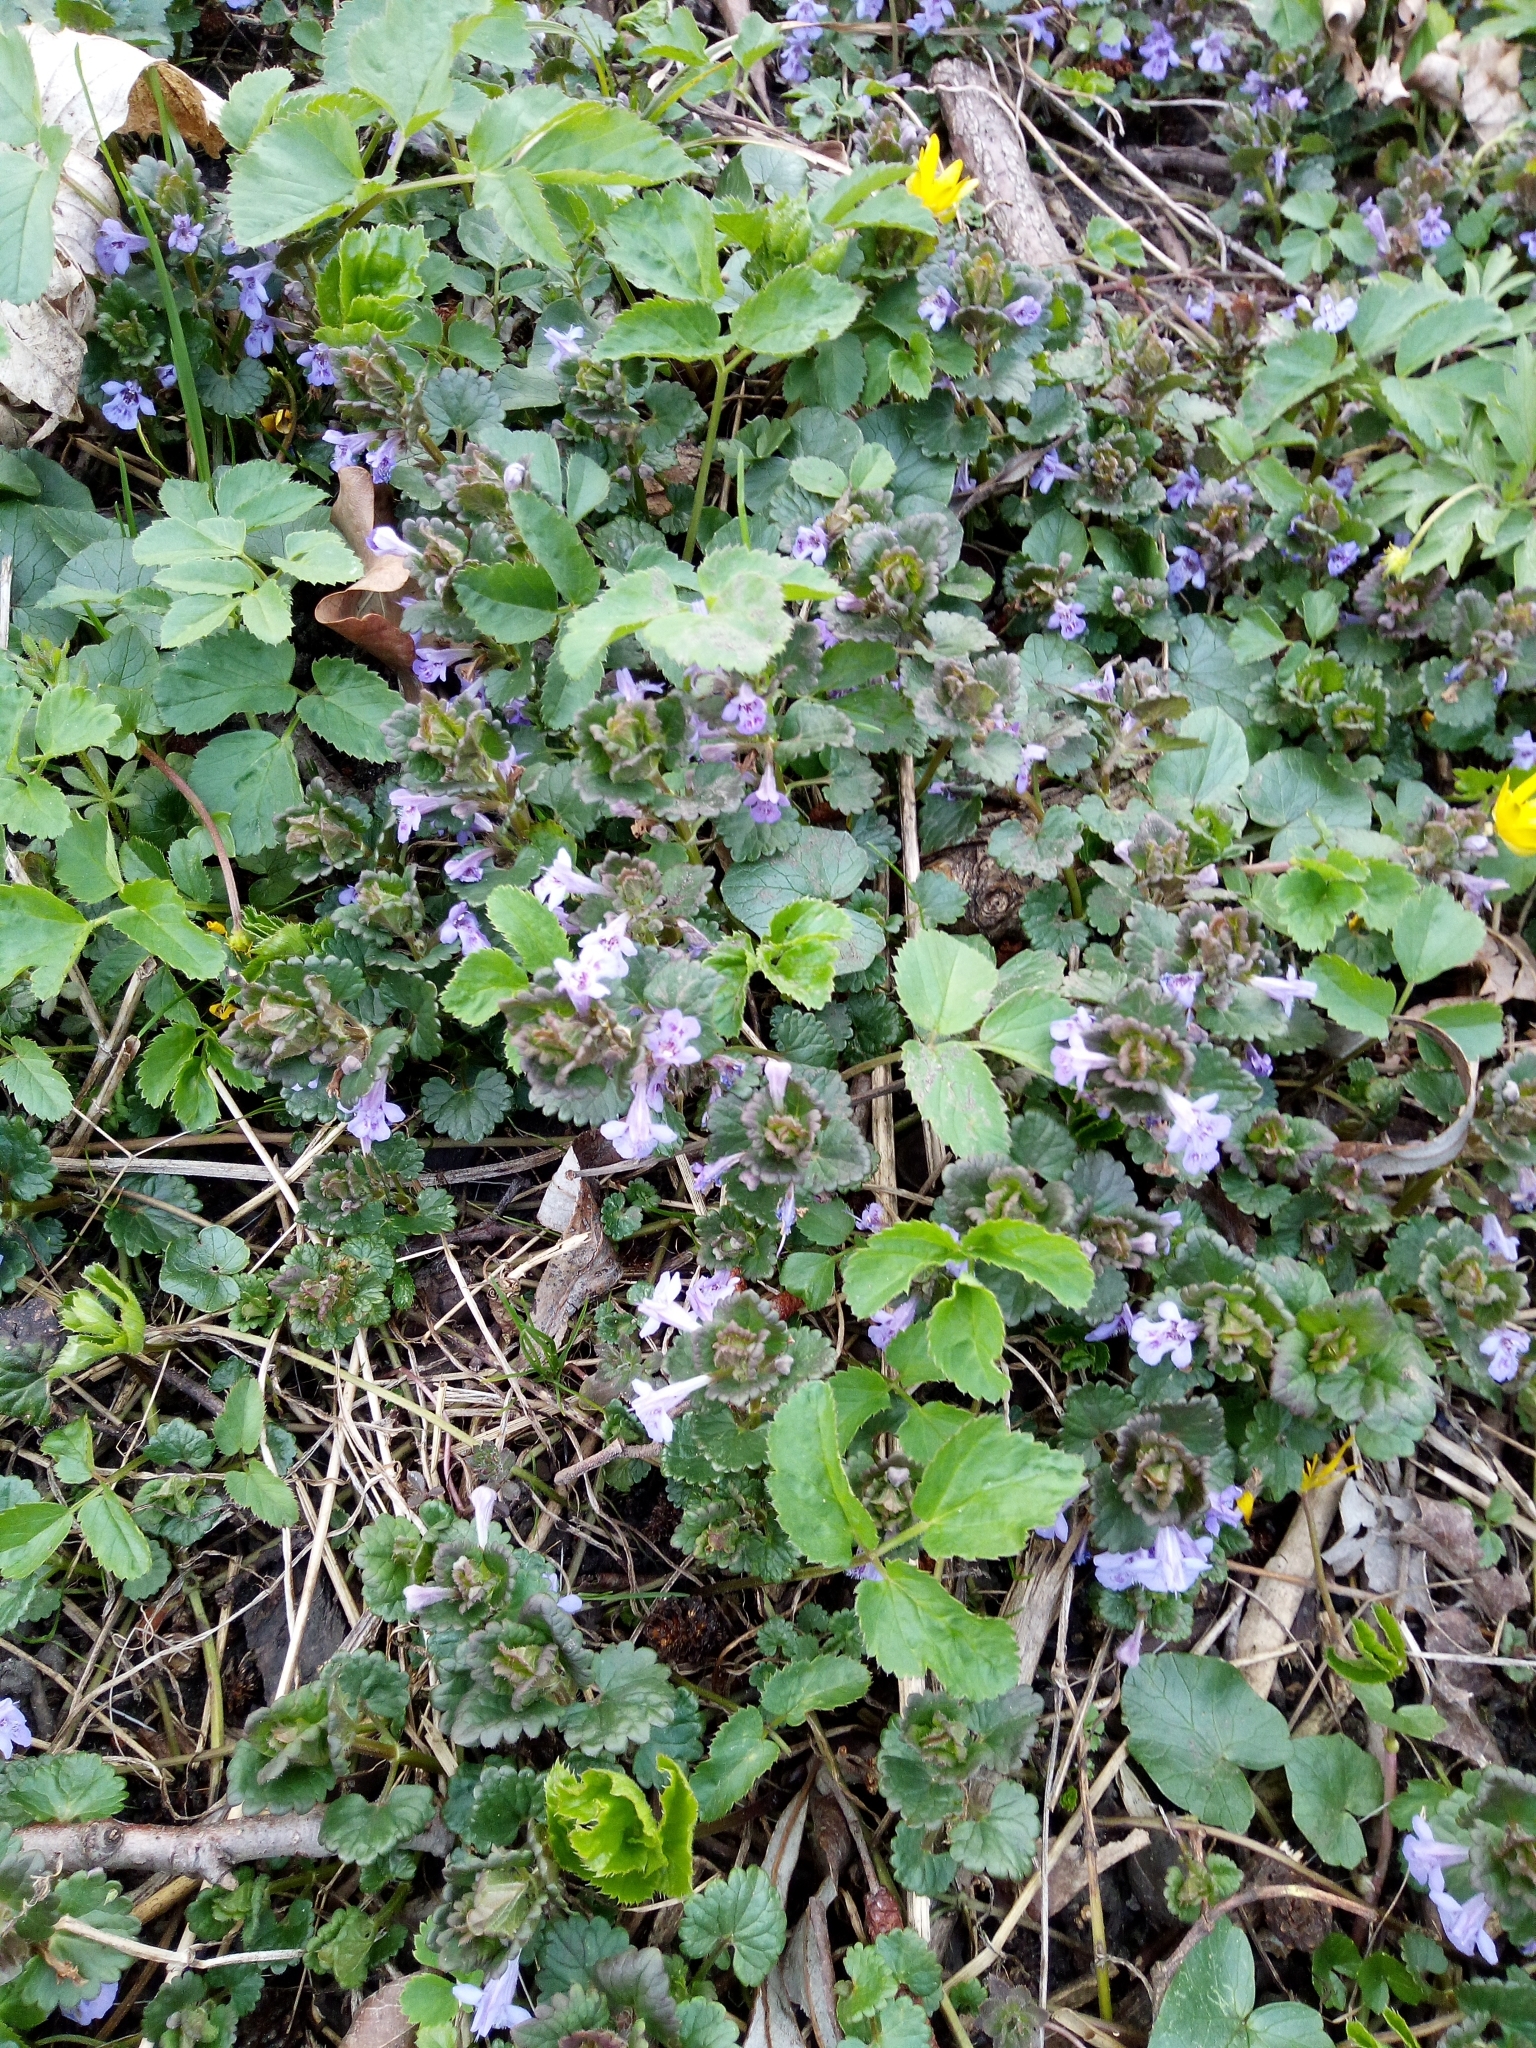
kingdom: Plantae
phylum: Tracheophyta
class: Magnoliopsida
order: Lamiales
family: Lamiaceae
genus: Glechoma
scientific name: Glechoma hederacea
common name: Ground ivy
